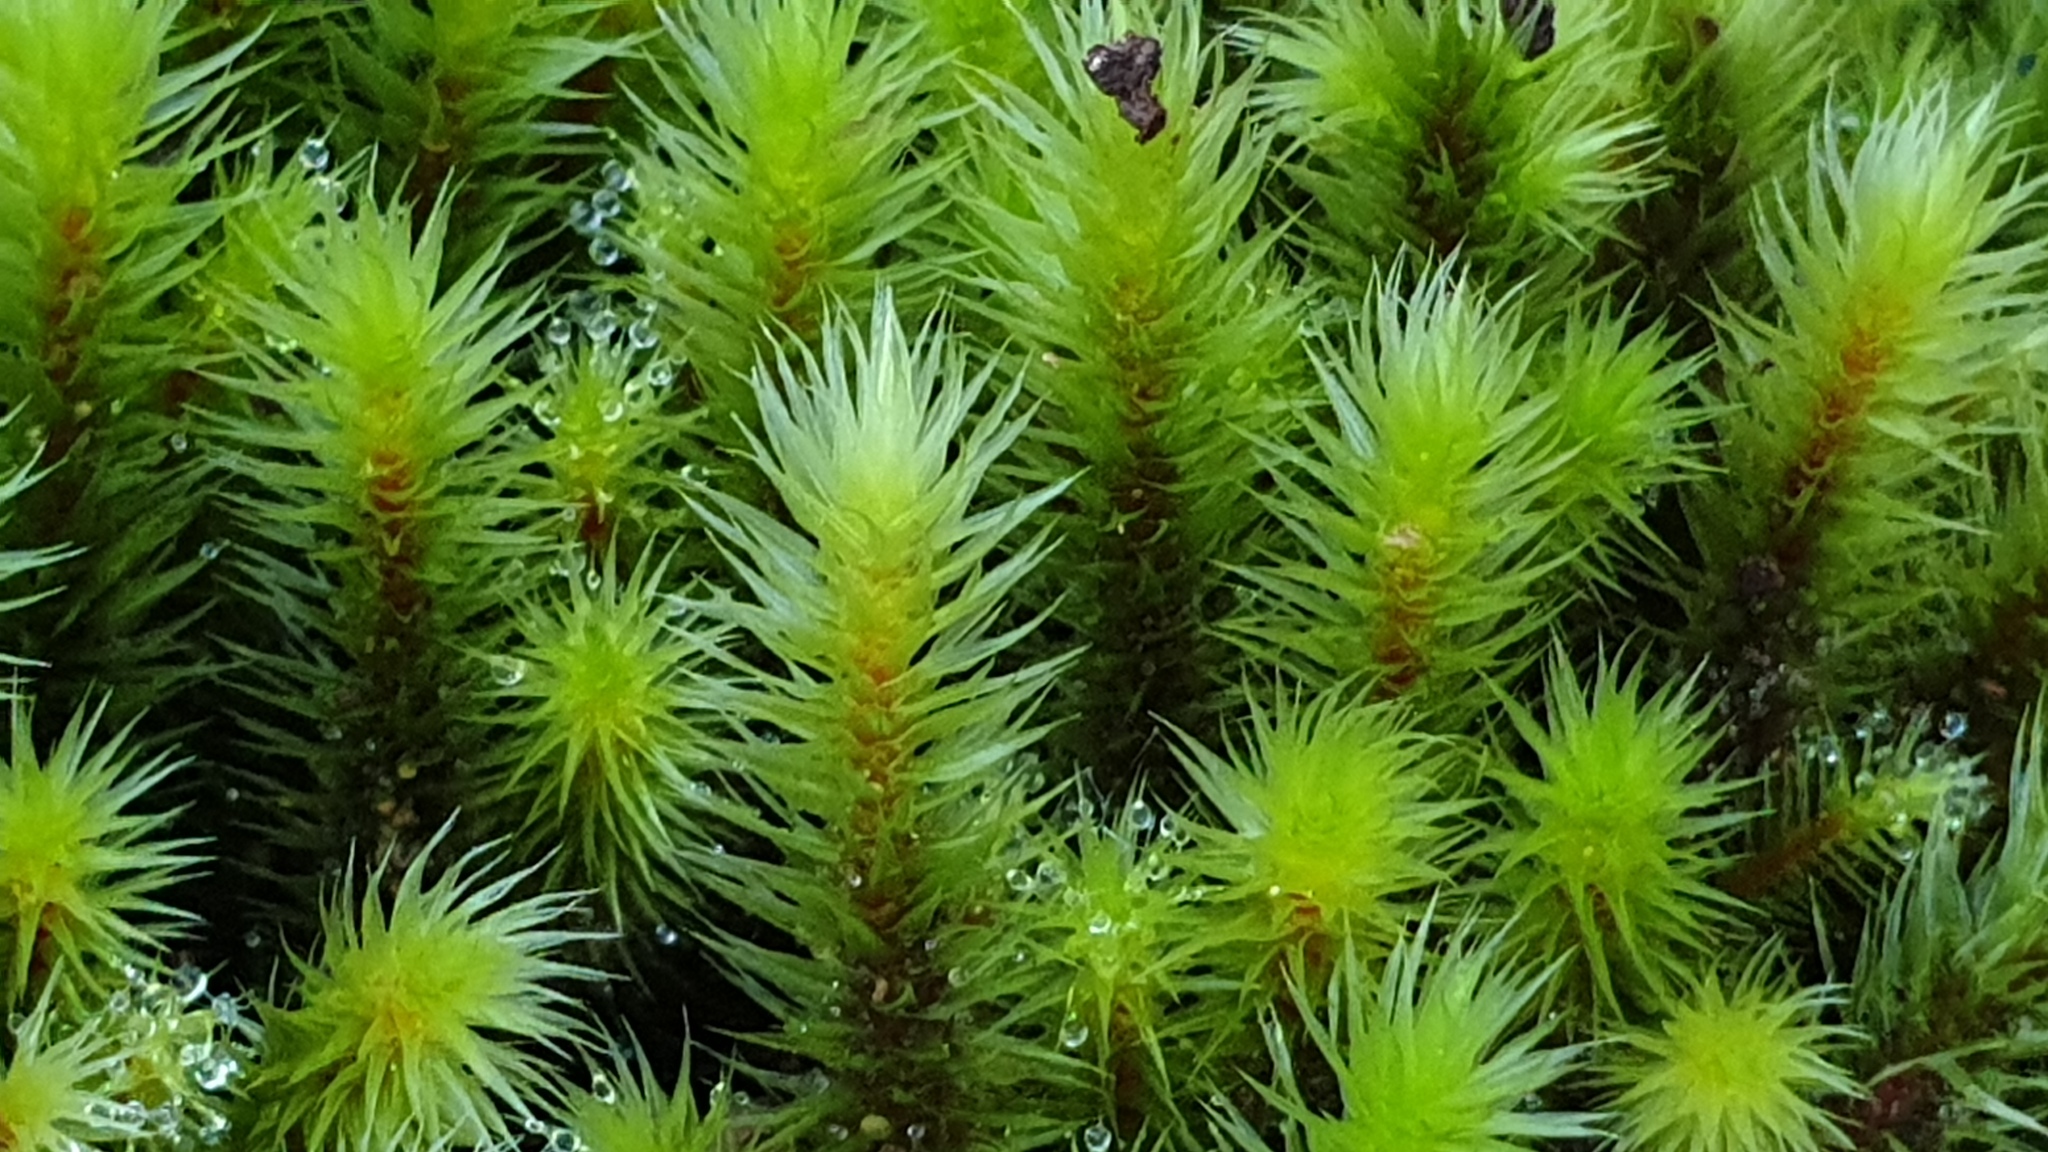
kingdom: Plantae
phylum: Bryophyta
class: Bryopsida
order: Bartramiales
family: Bartramiaceae
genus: Breutelia
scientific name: Breutelia affinis
